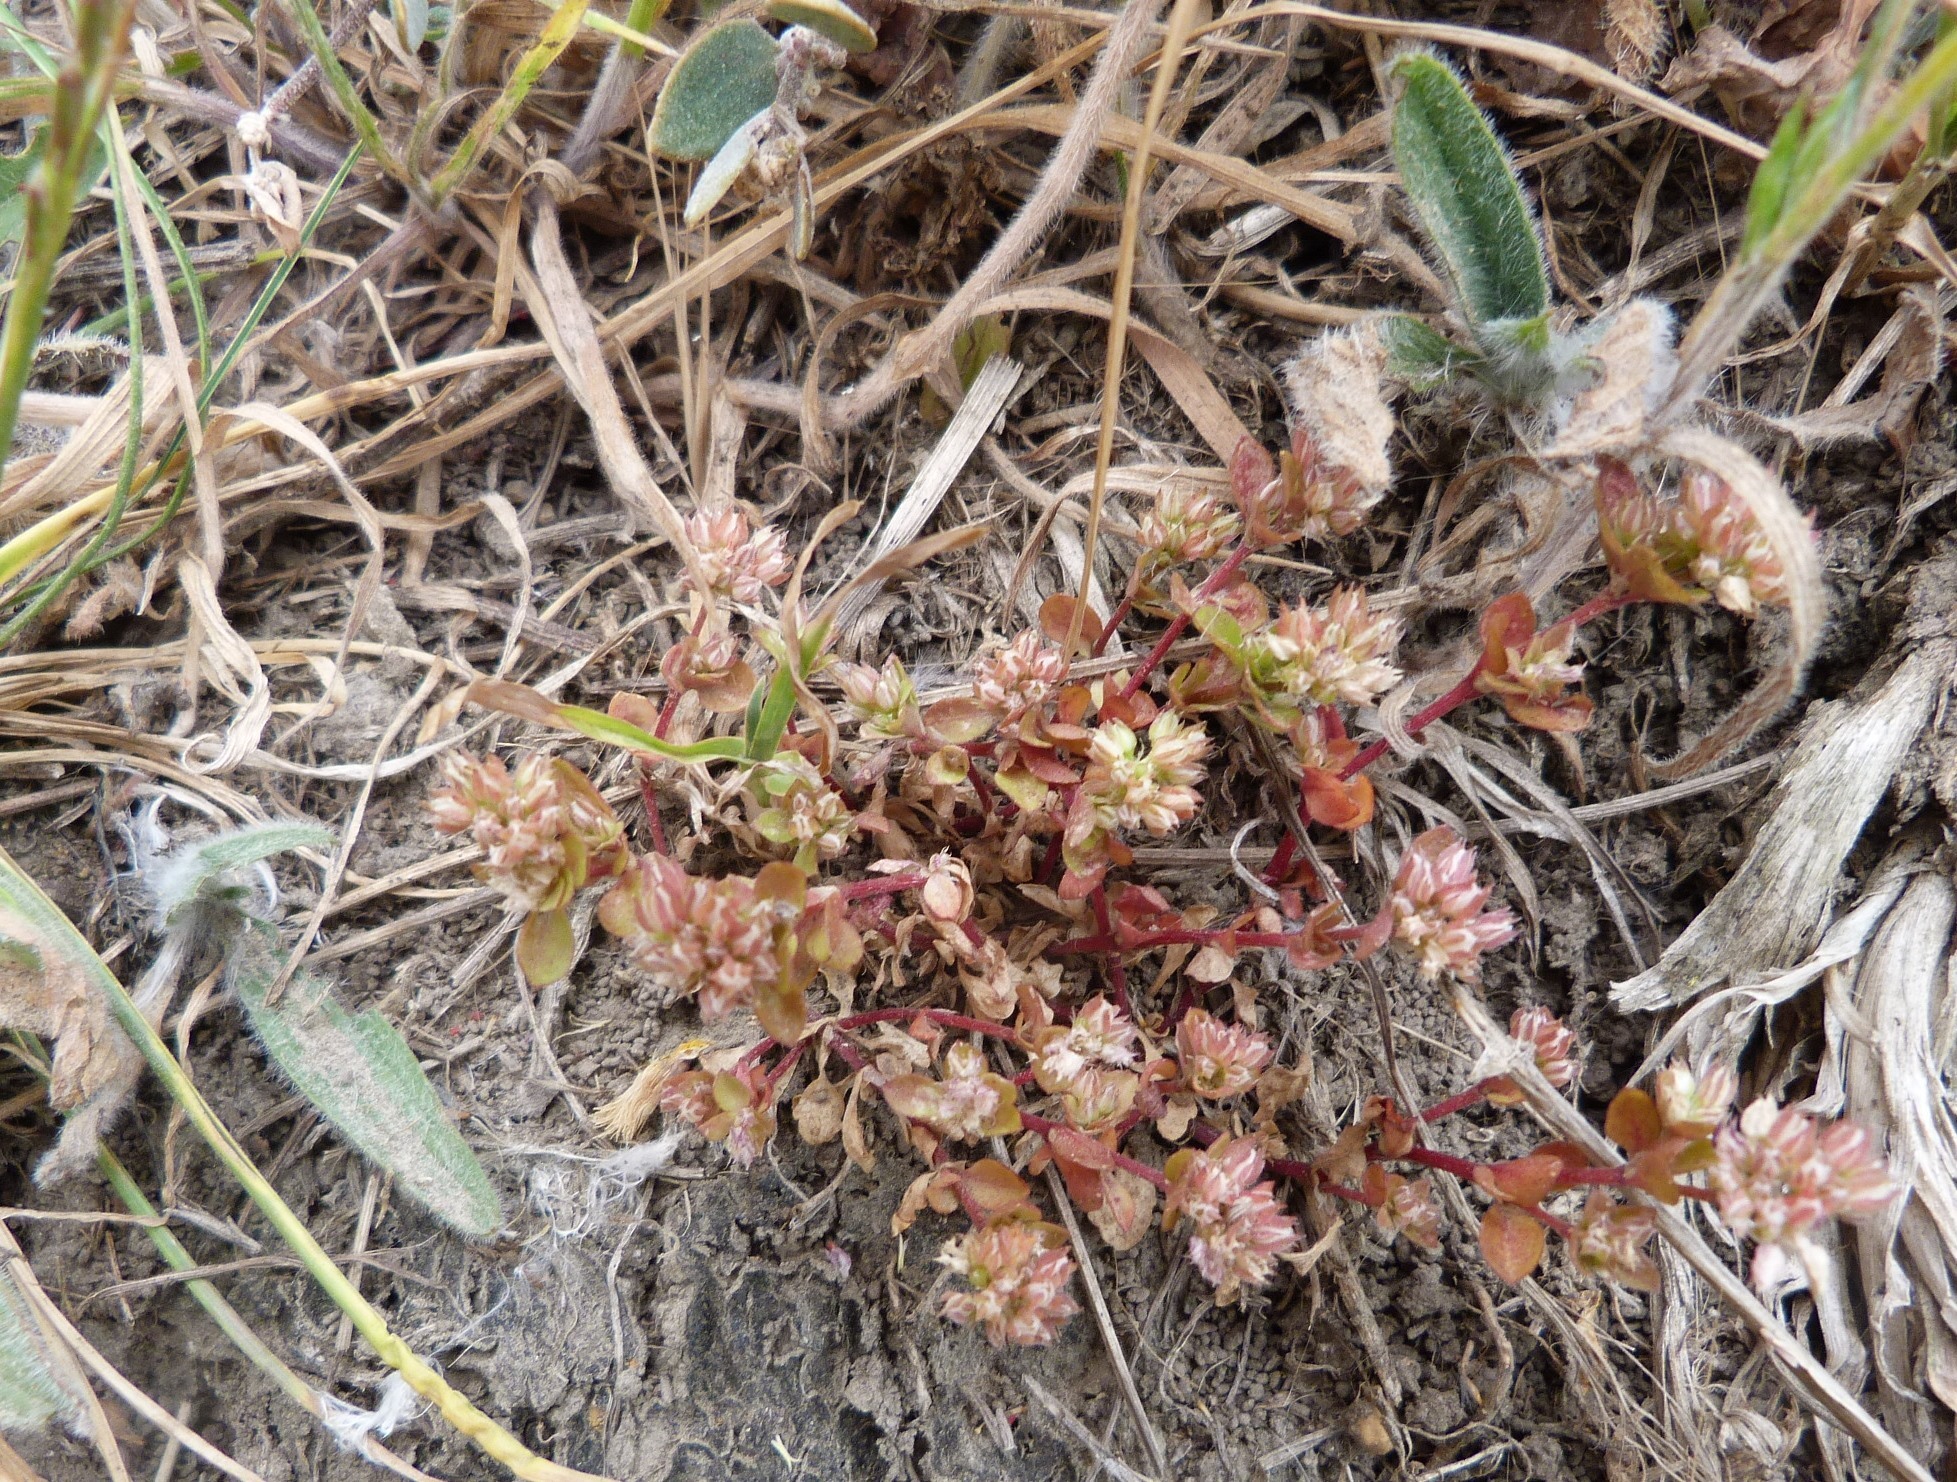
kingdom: Plantae
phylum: Tracheophyta
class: Magnoliopsida
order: Caryophyllales
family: Caryophyllaceae
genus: Polycarpon
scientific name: Polycarpon tetraphyllum
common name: Four-leaved all-seed
